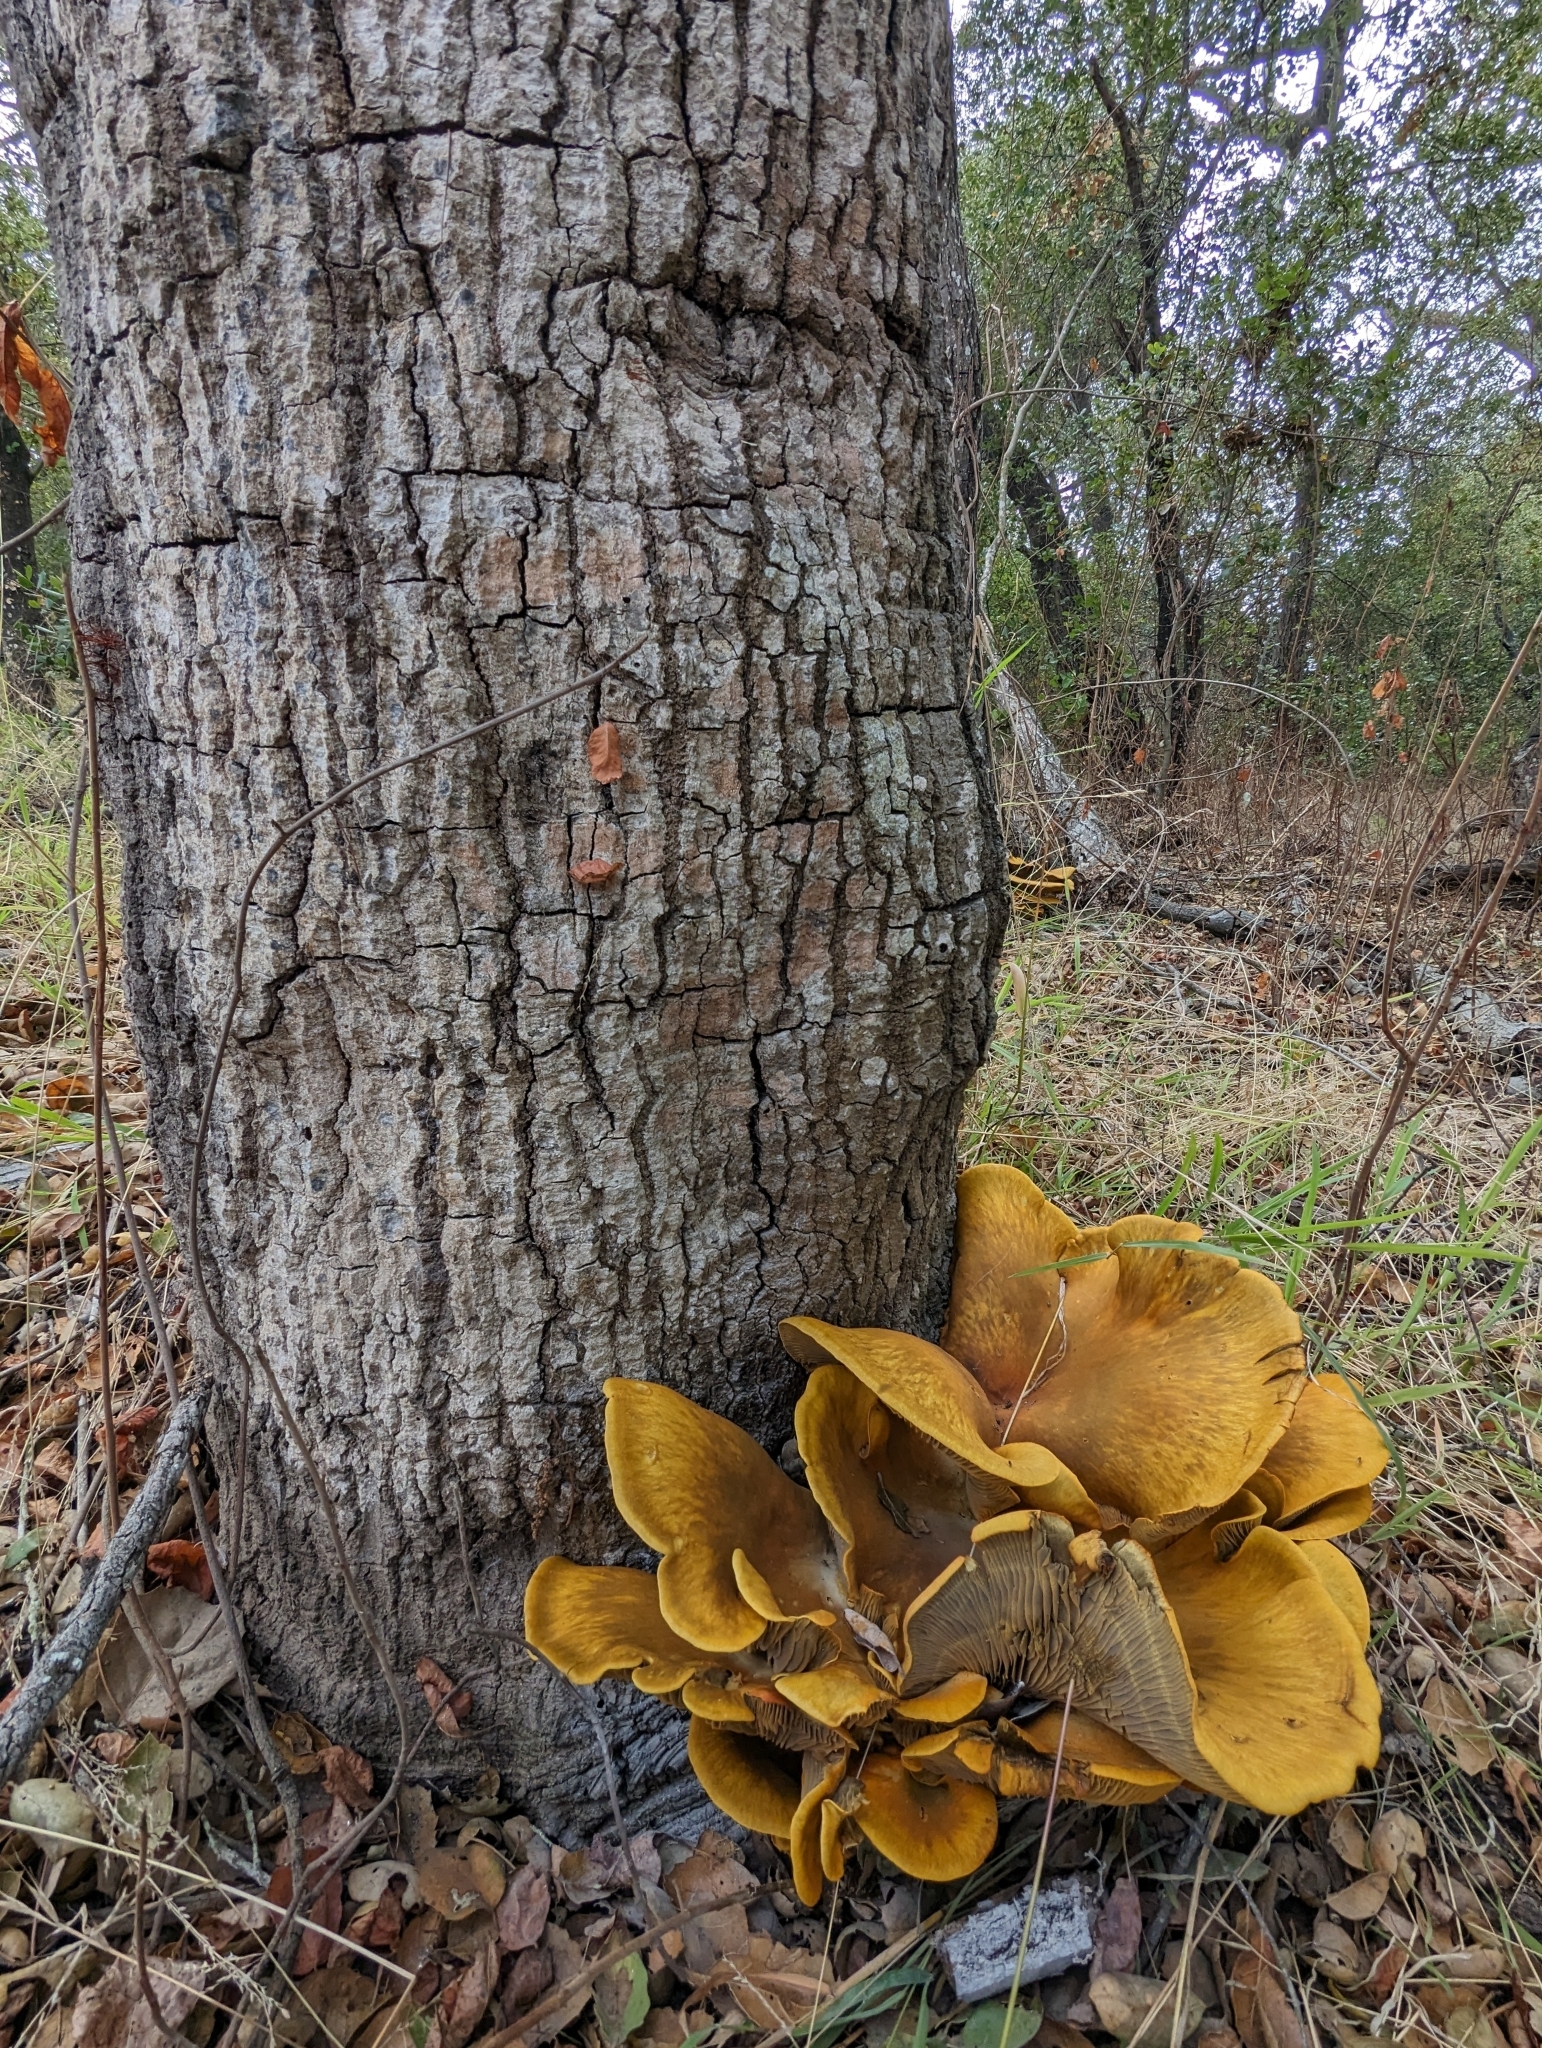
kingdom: Fungi
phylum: Basidiomycota
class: Agaricomycetes
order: Agaricales
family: Omphalotaceae
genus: Omphalotus
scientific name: Omphalotus olivascens
